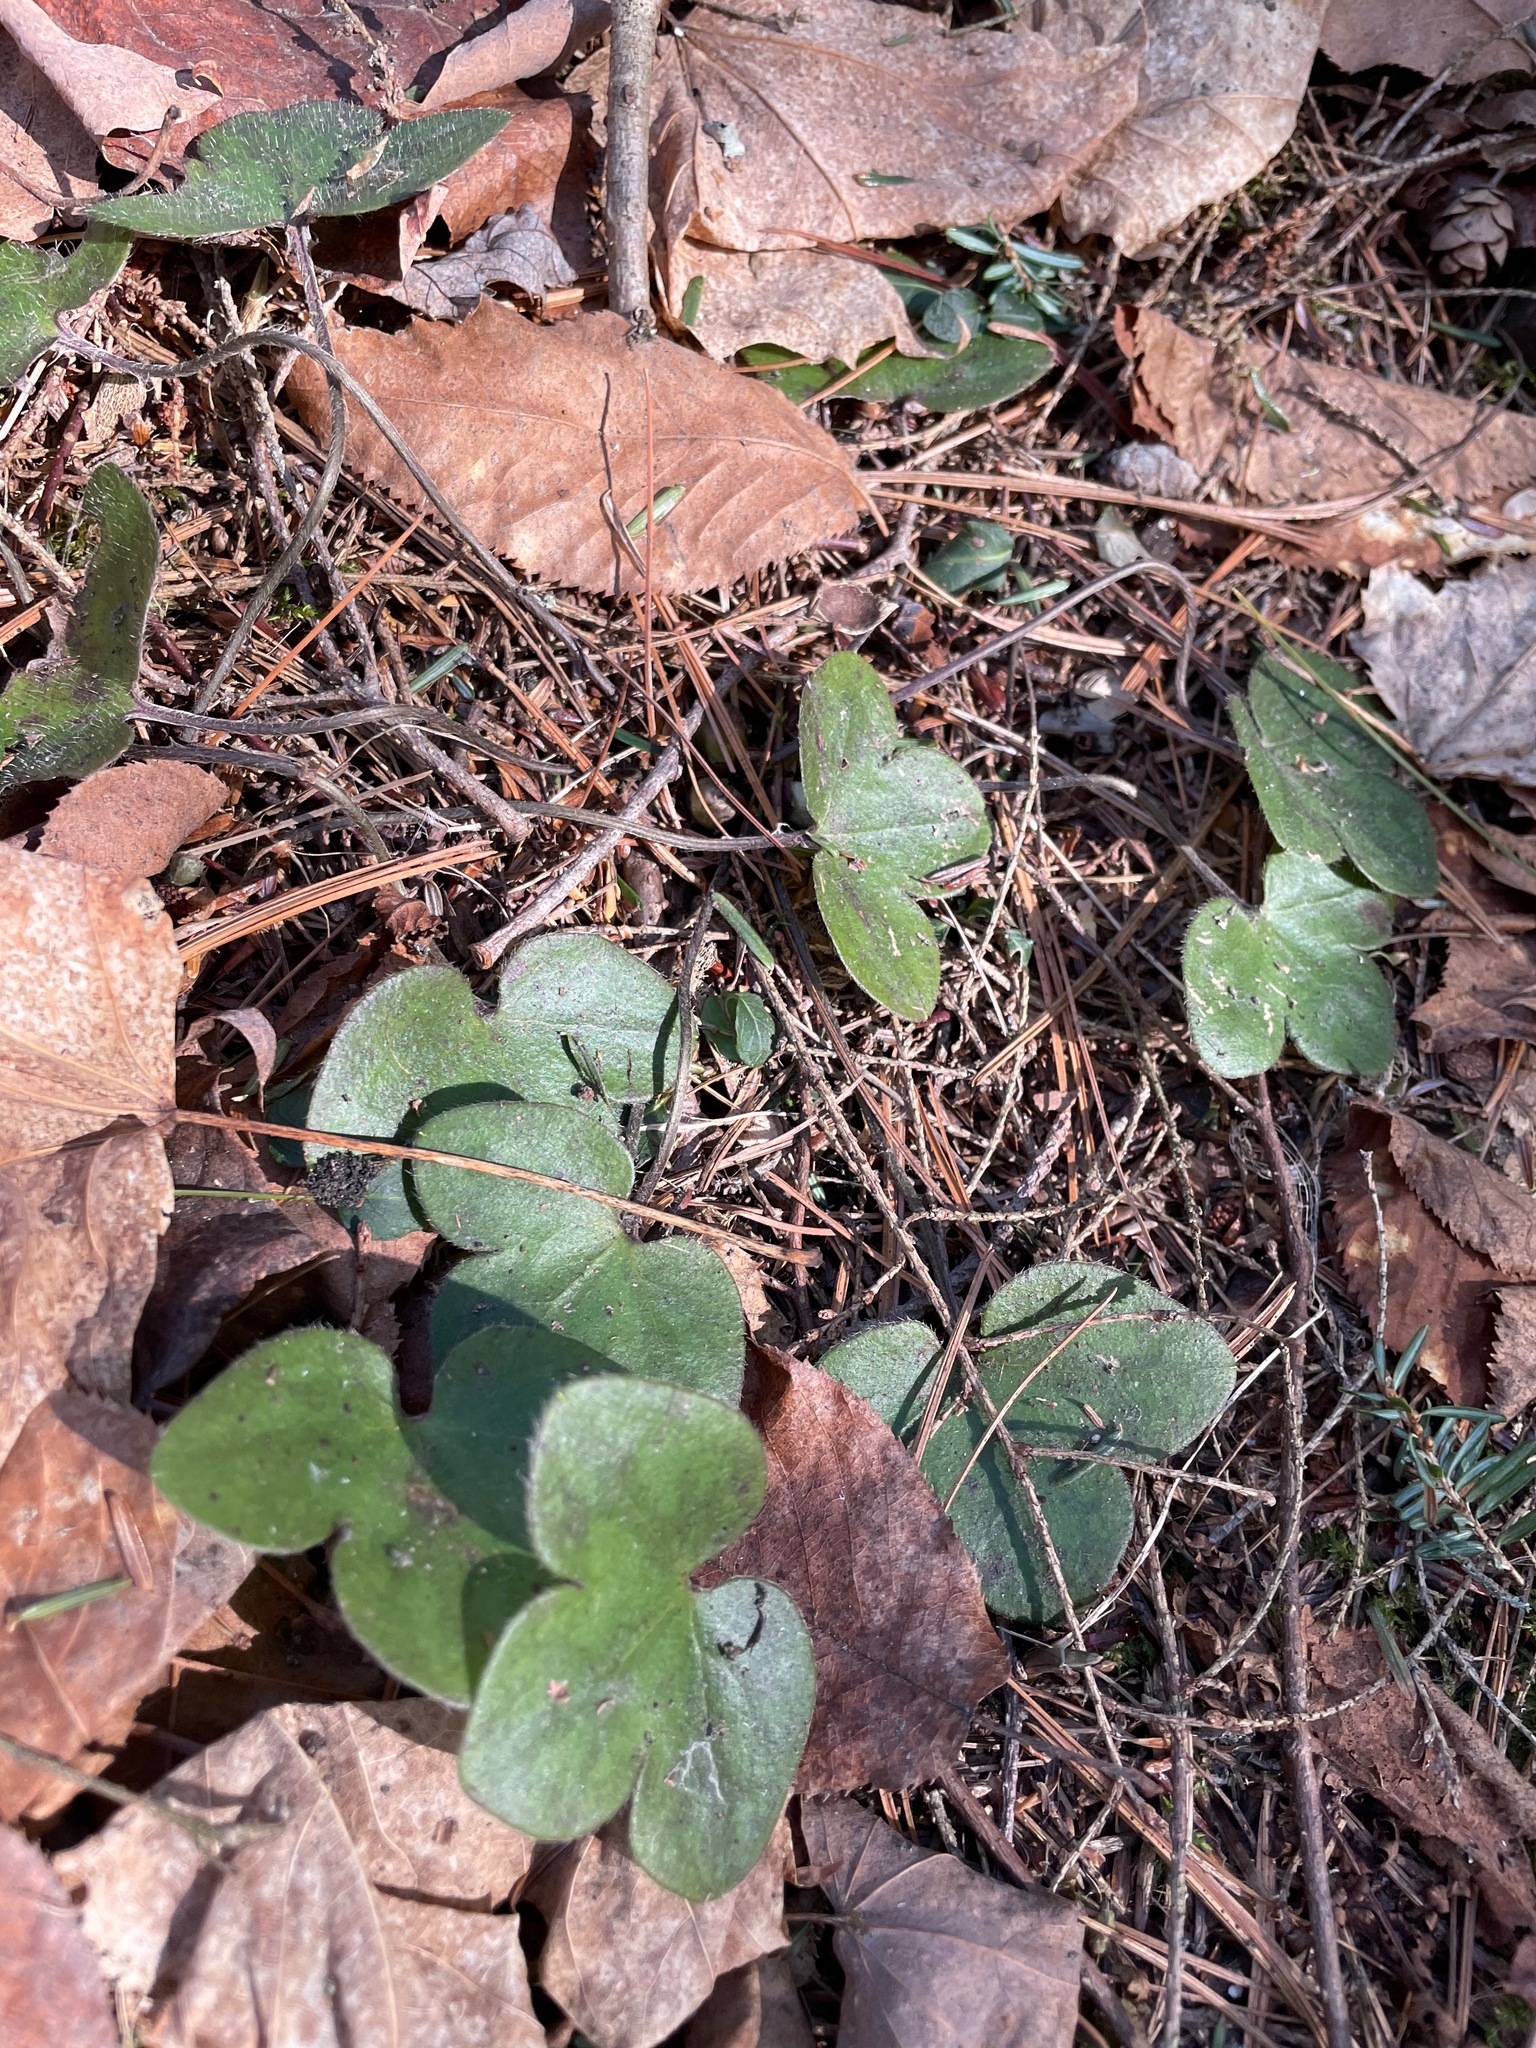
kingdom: Plantae
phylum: Tracheophyta
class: Magnoliopsida
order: Ranunculales
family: Ranunculaceae
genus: Hepatica
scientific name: Hepatica americana
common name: American hepatica
